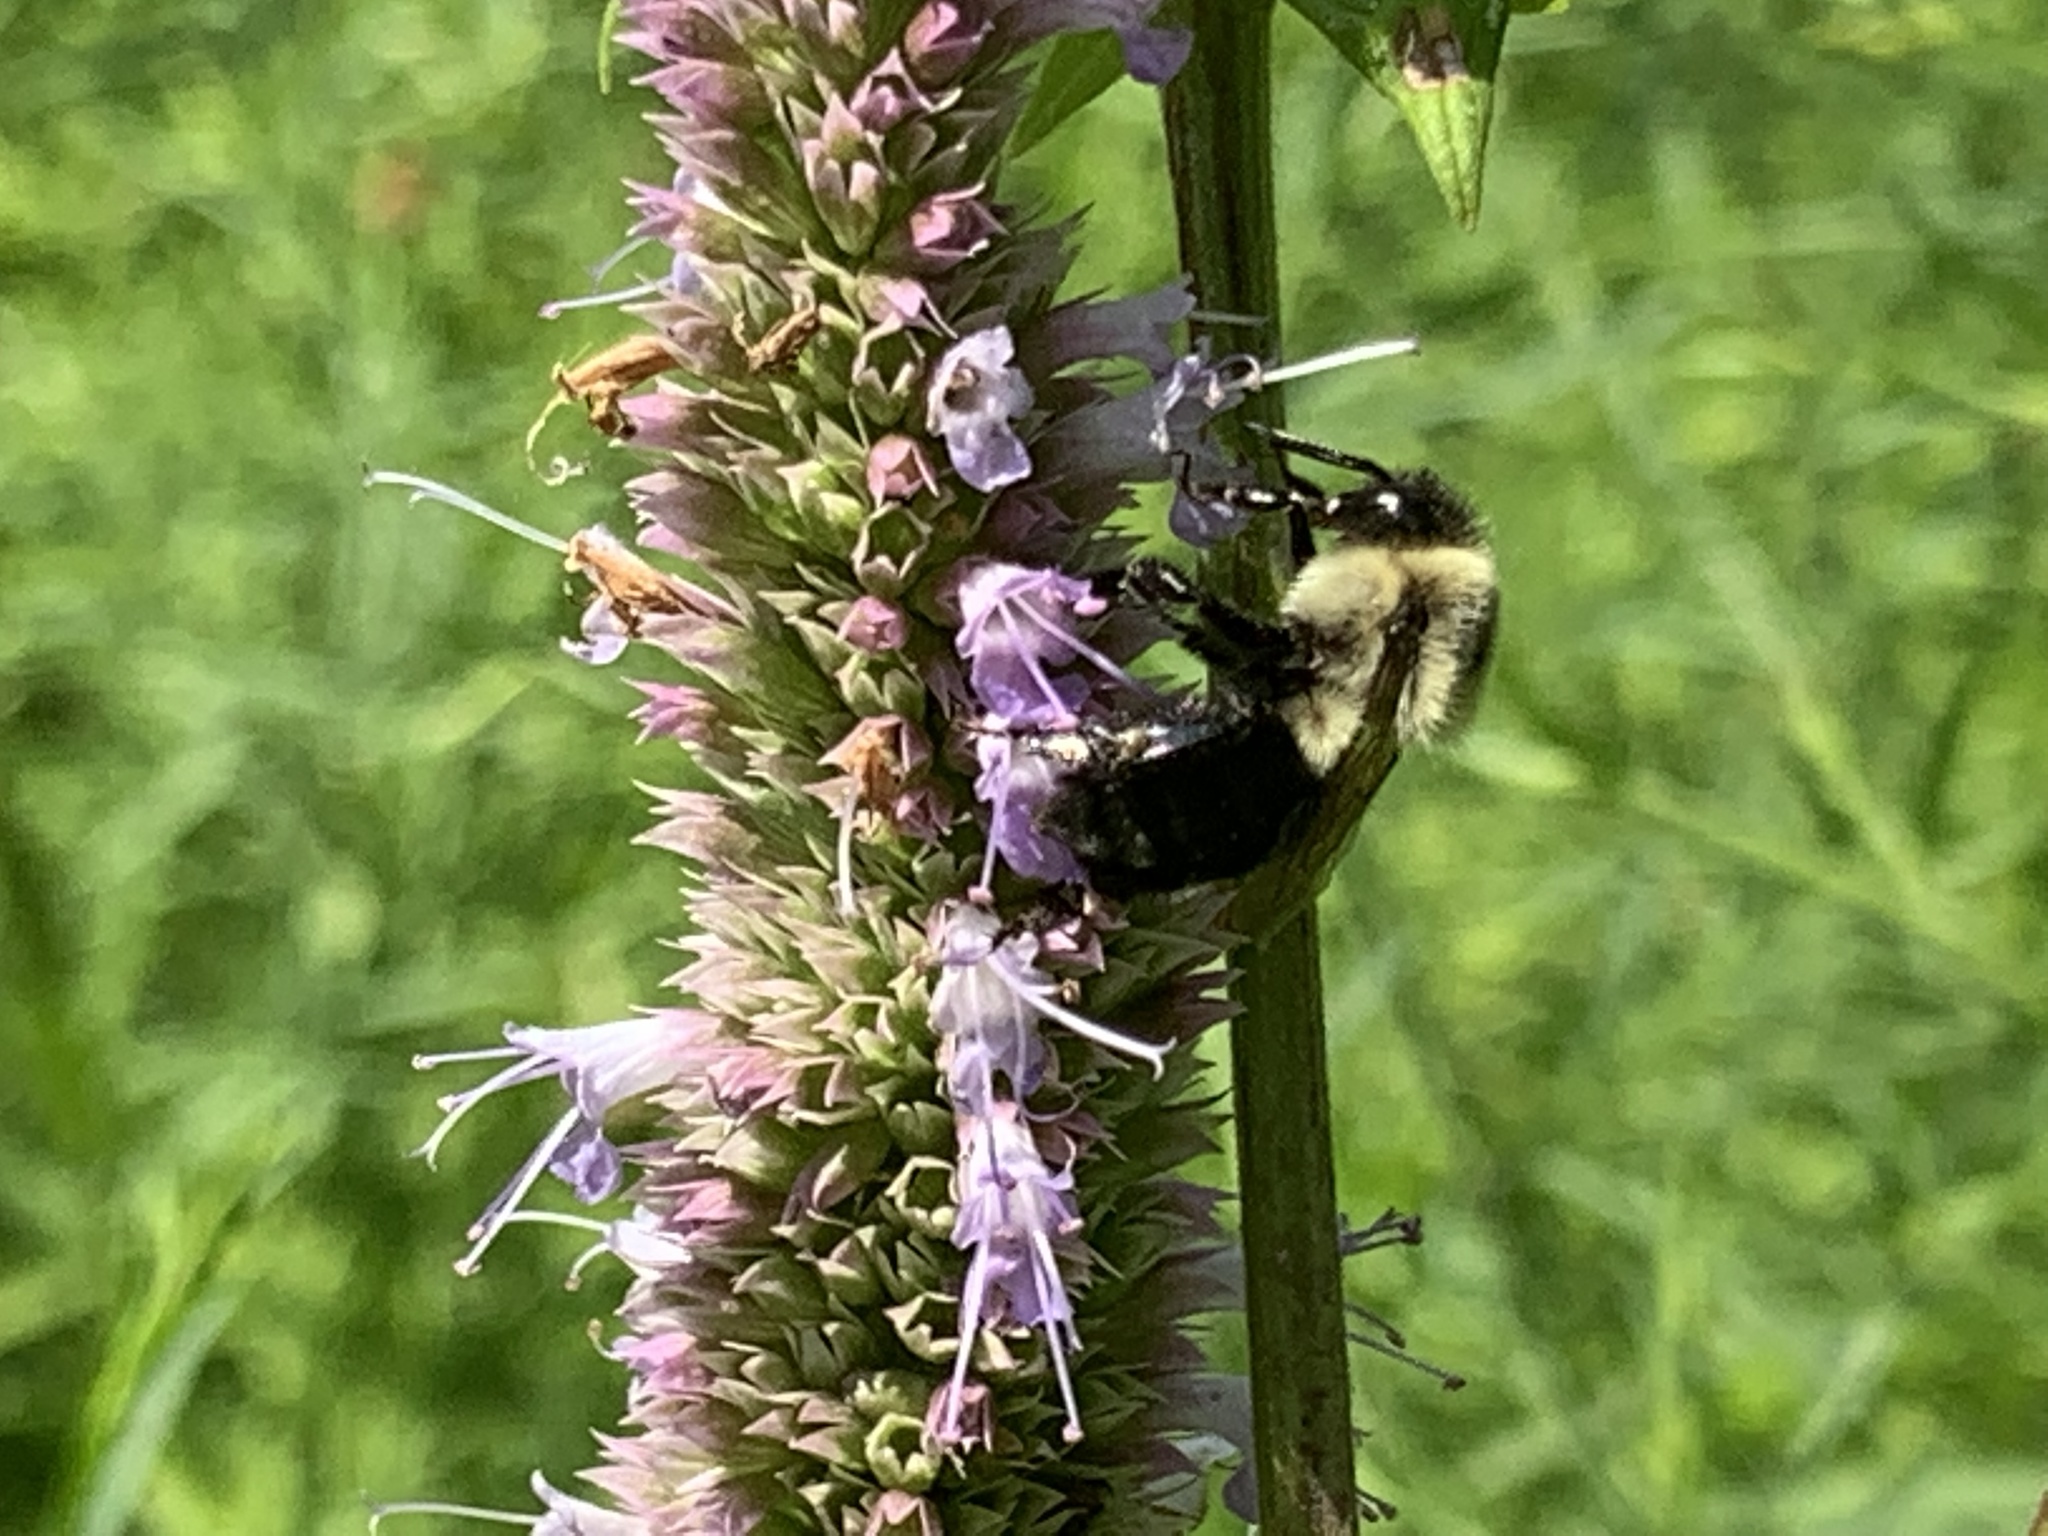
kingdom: Animalia
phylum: Arthropoda
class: Insecta
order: Hymenoptera
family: Apidae
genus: Bombus
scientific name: Bombus impatiens
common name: Common eastern bumble bee
